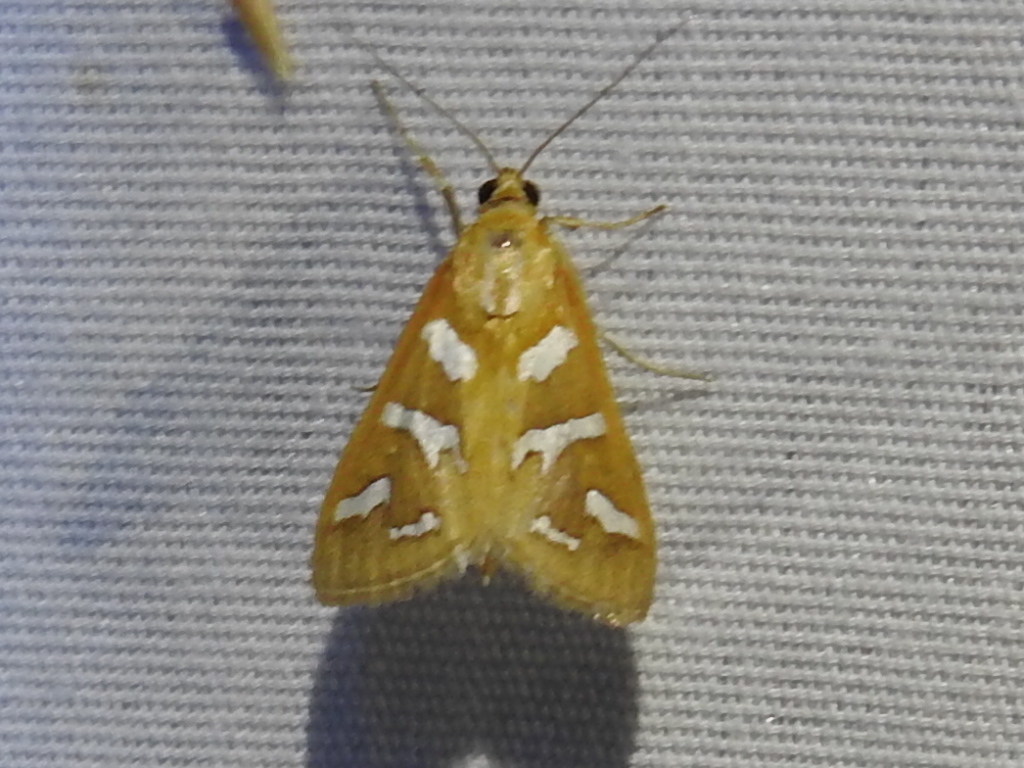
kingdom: Animalia
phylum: Arthropoda
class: Insecta
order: Lepidoptera
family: Crambidae
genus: Diastictis
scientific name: Diastictis fracturalis
